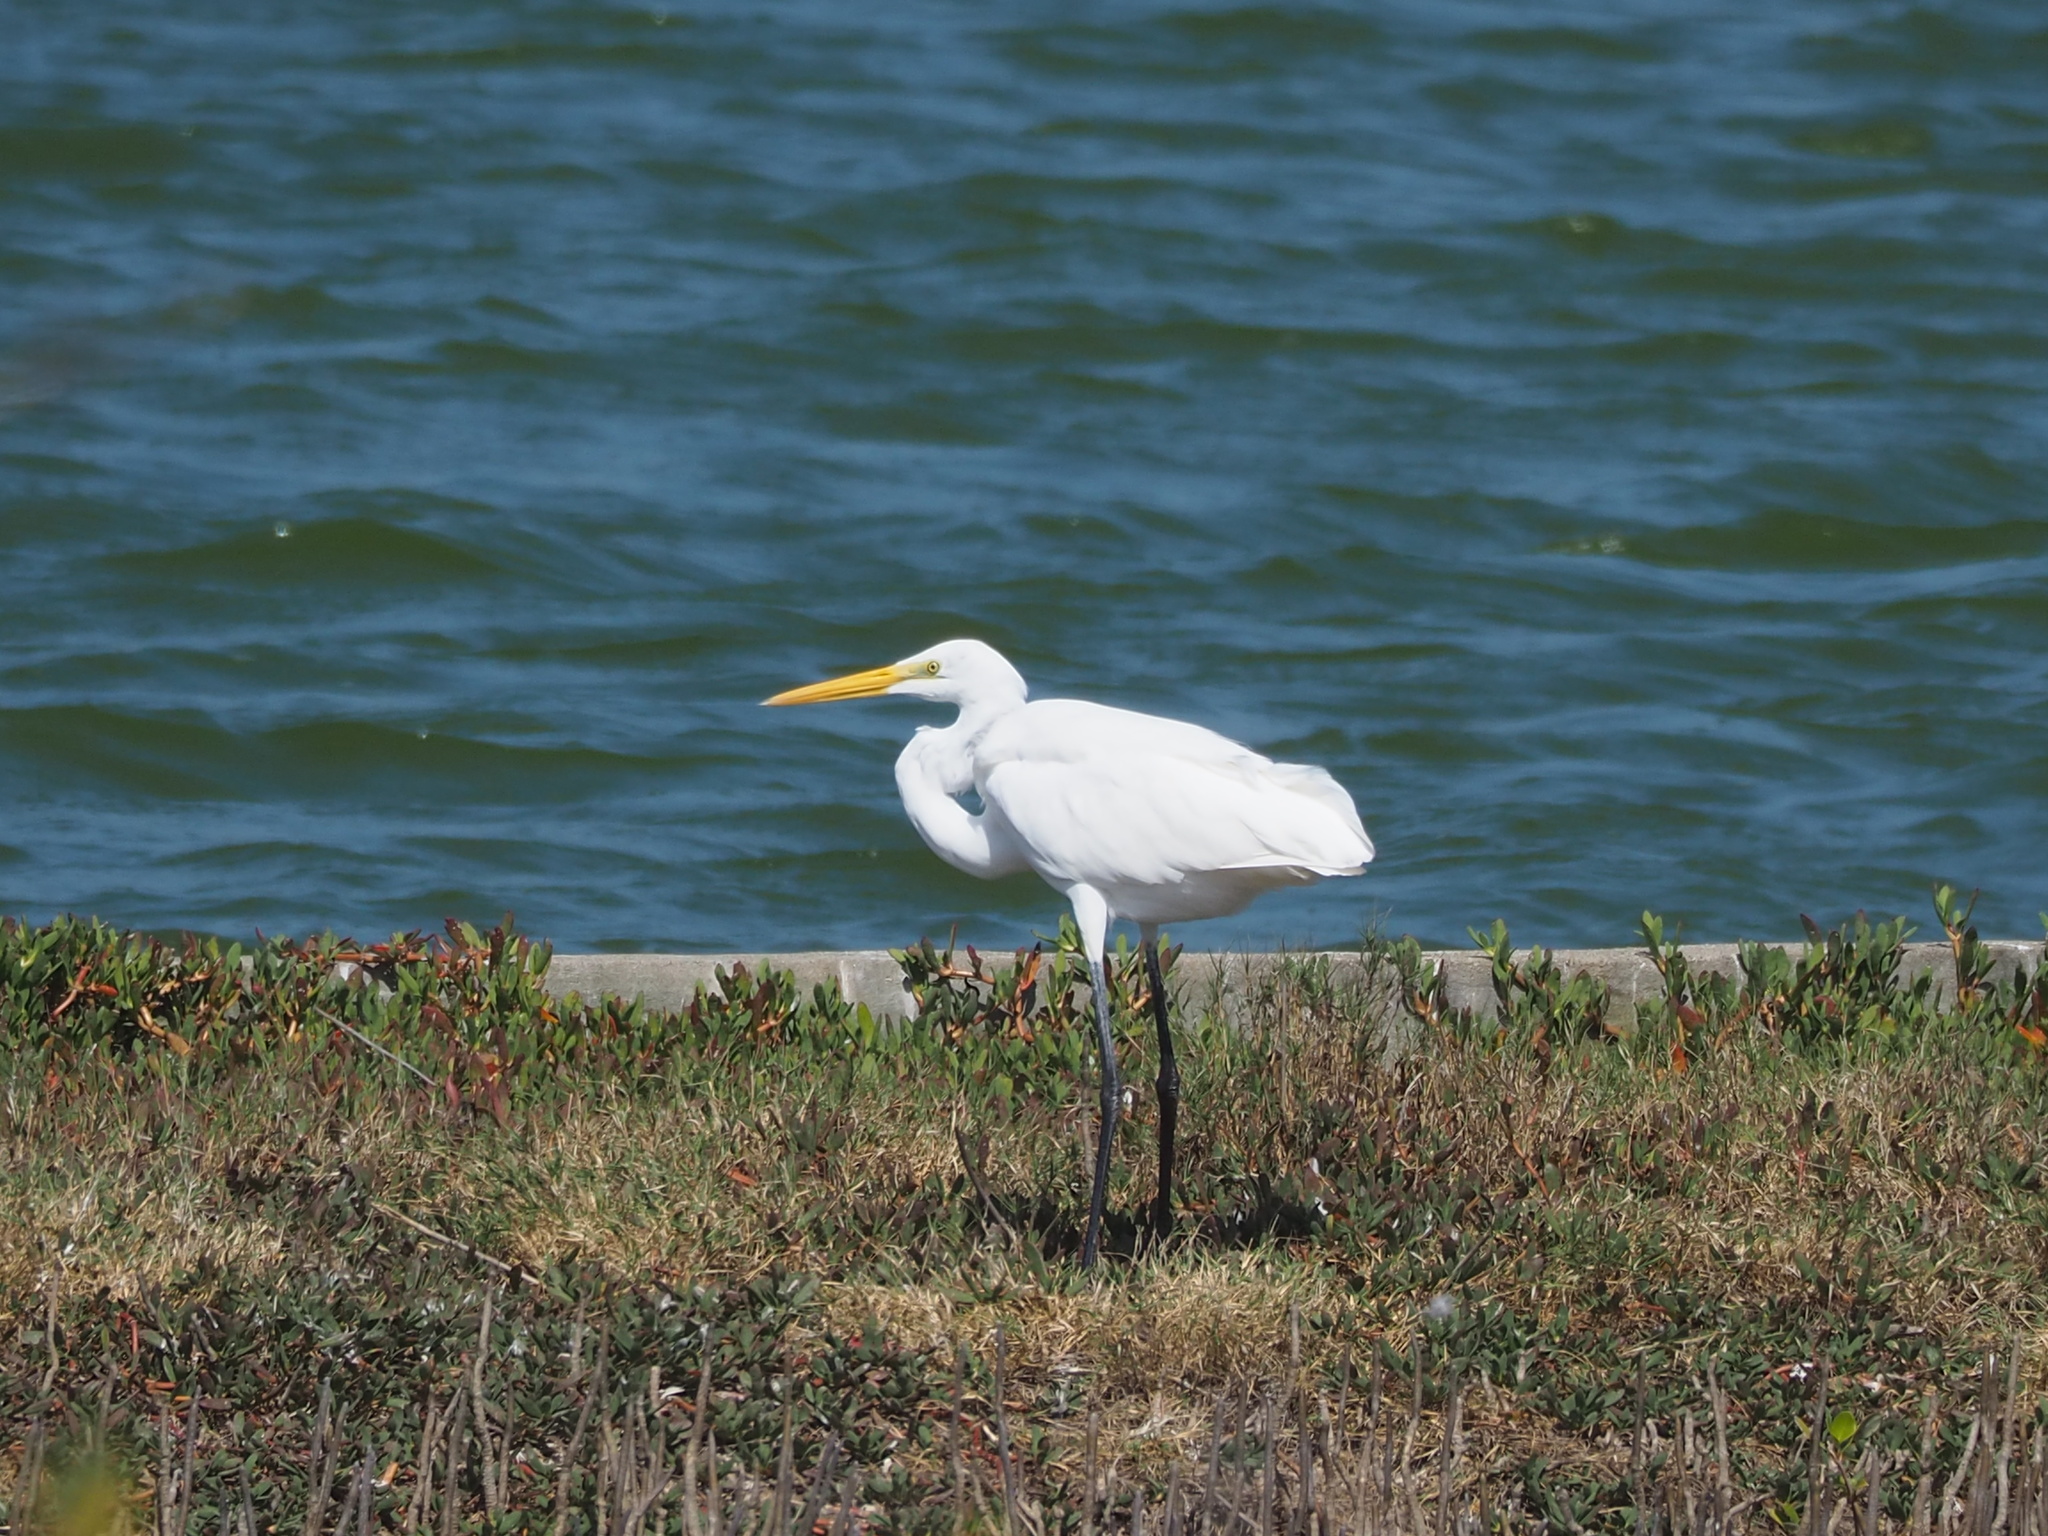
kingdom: Animalia
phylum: Chordata
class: Aves
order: Pelecaniformes
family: Ardeidae
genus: Ardea
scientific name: Ardea alba
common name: Great egret
